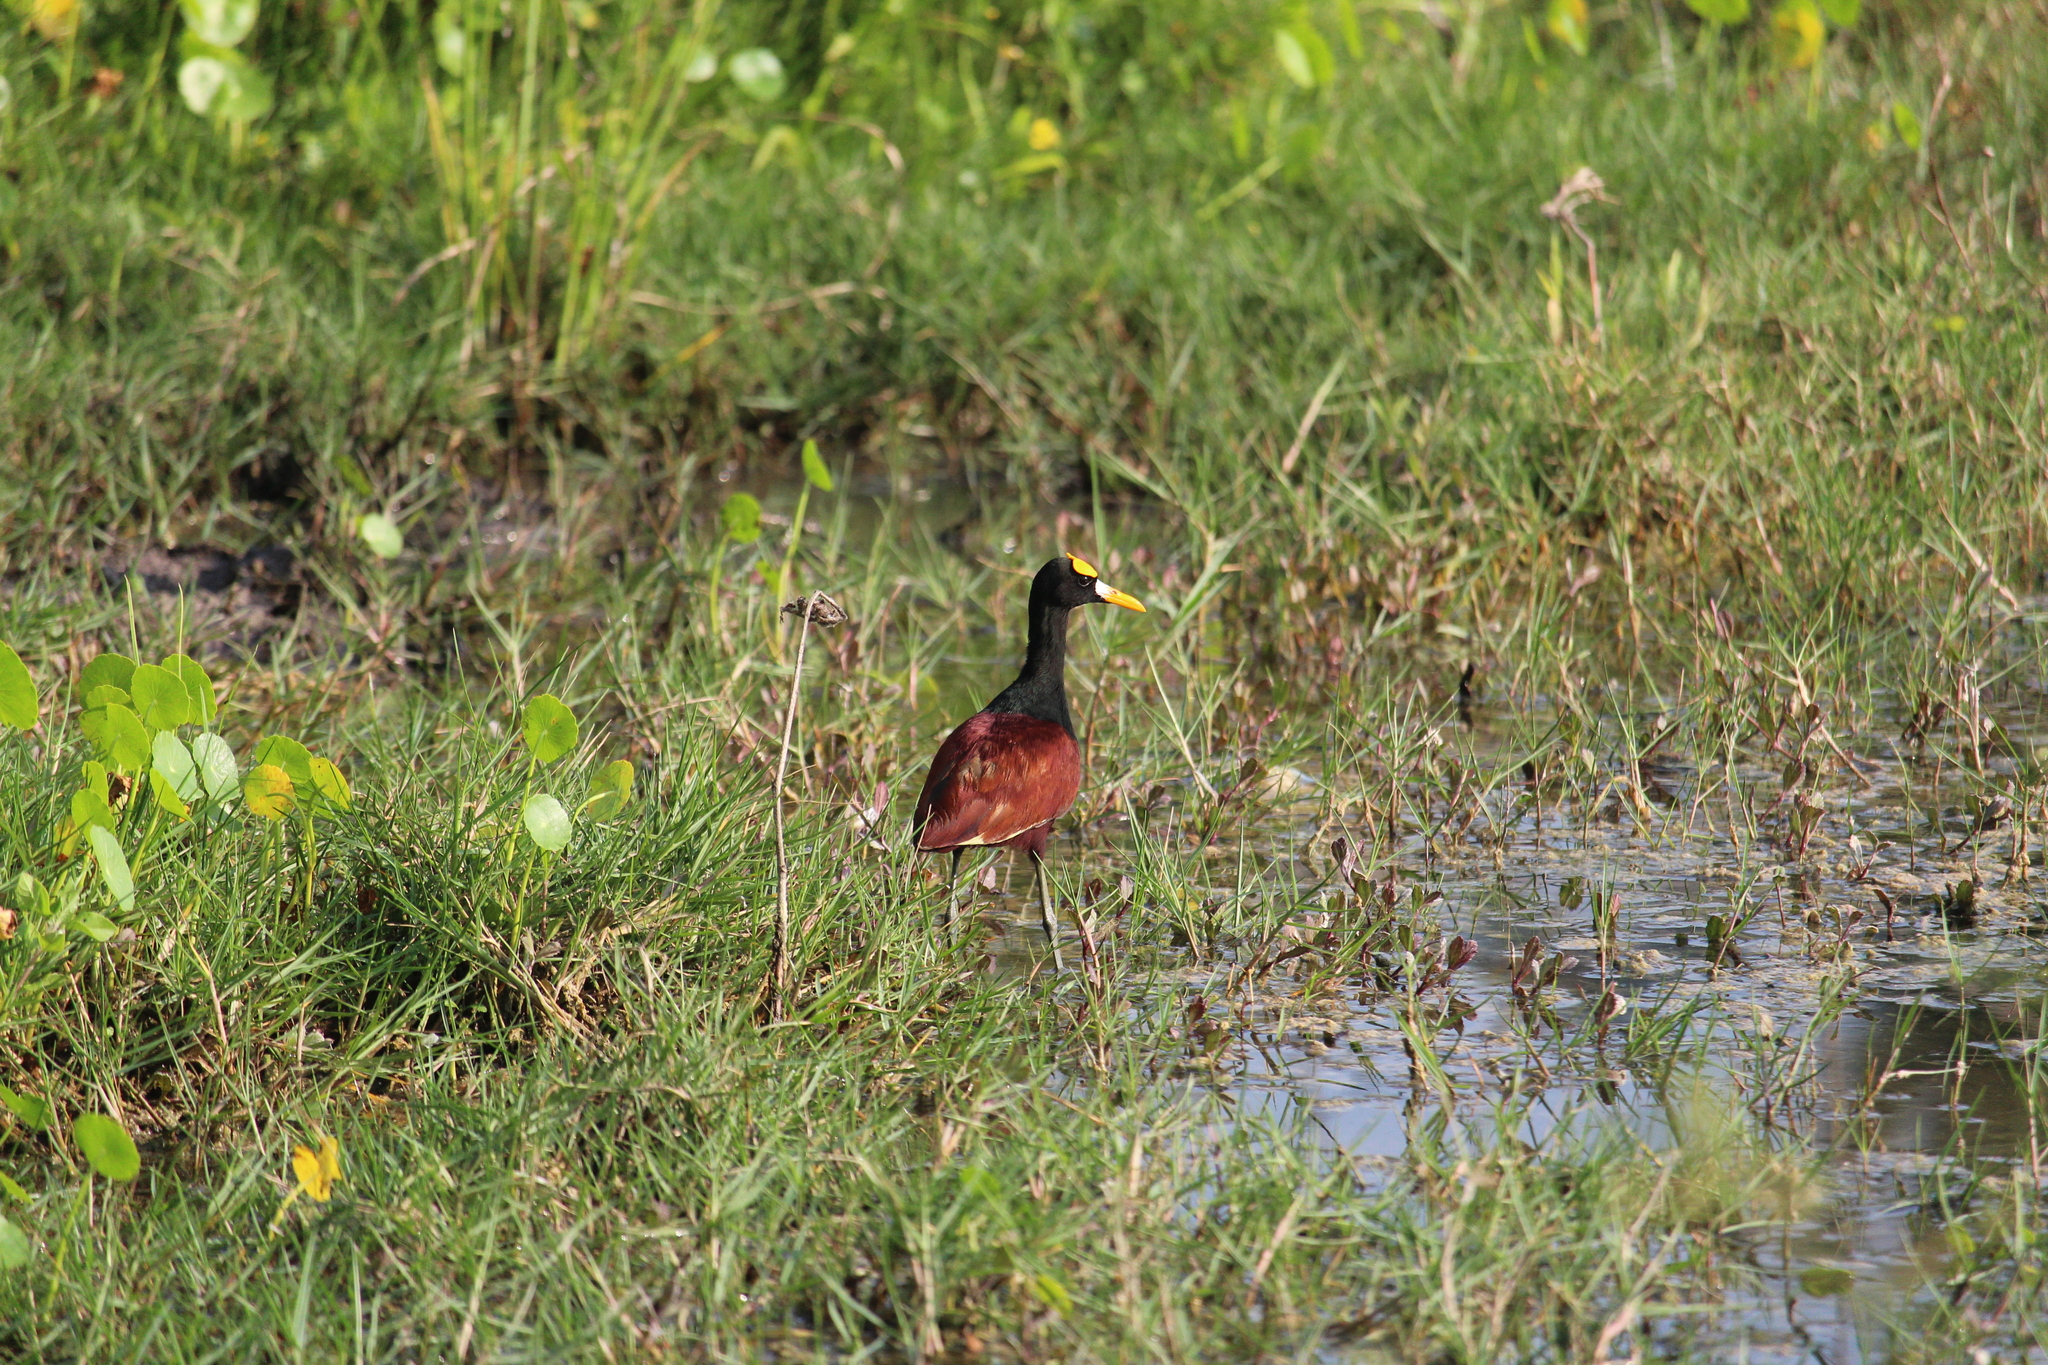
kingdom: Animalia
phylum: Chordata
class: Aves
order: Charadriiformes
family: Jacanidae
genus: Jacana
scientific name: Jacana spinosa
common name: Northern jacana
